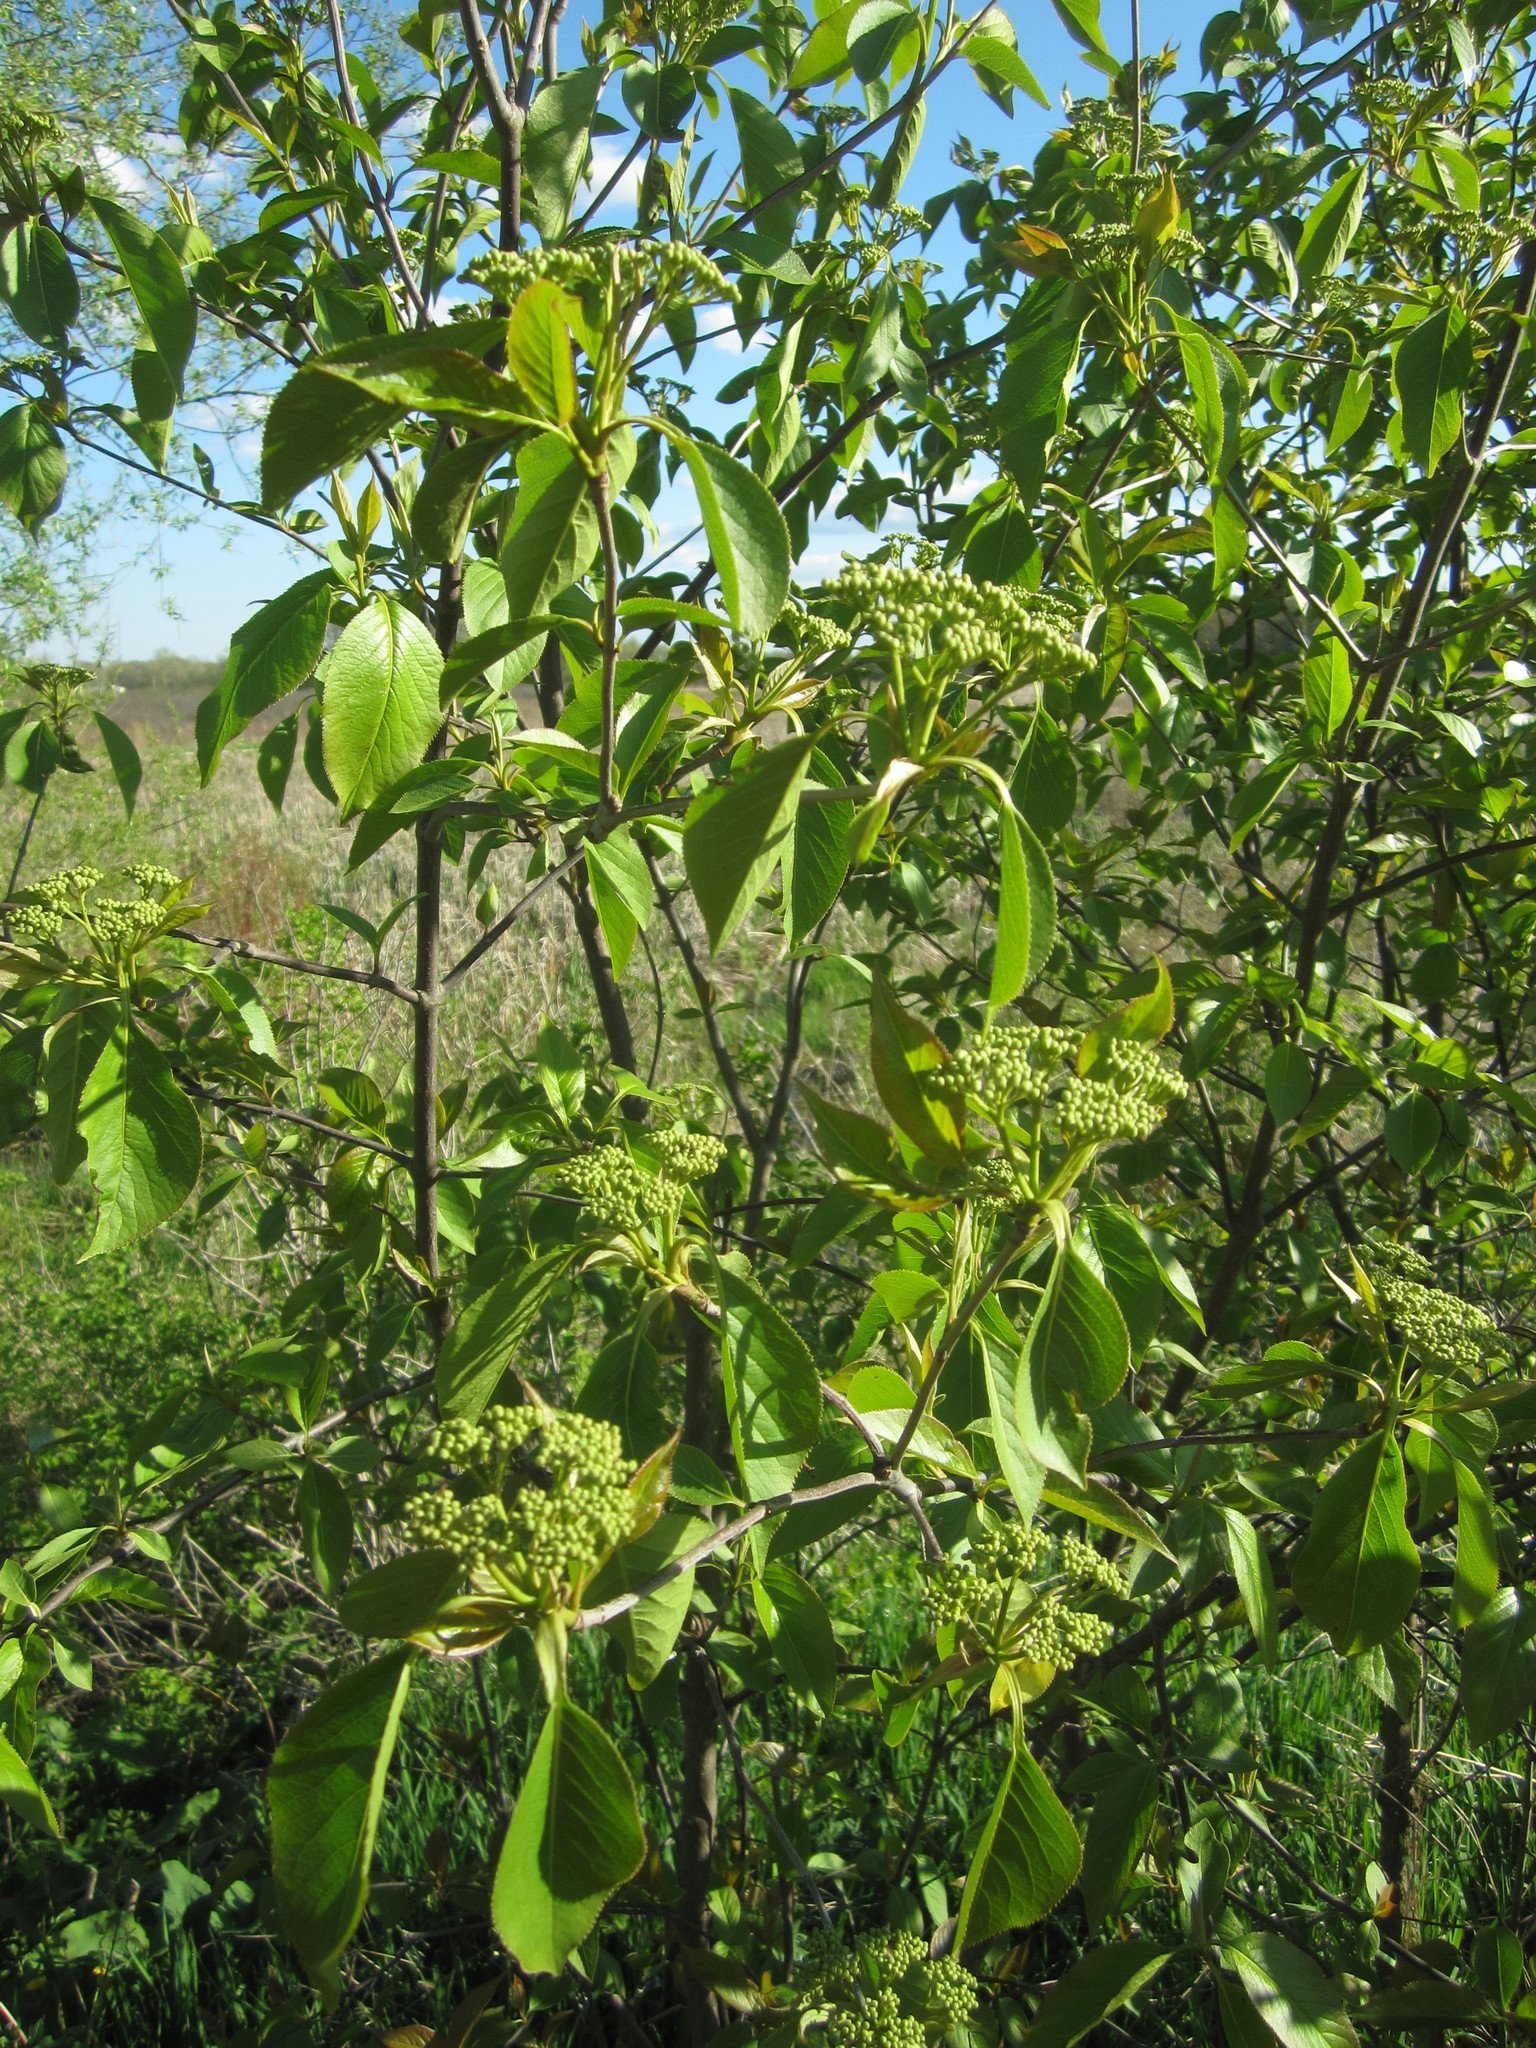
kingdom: Plantae
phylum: Tracheophyta
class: Magnoliopsida
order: Dipsacales
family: Viburnaceae
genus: Viburnum
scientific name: Viburnum lentago
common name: Black haw
